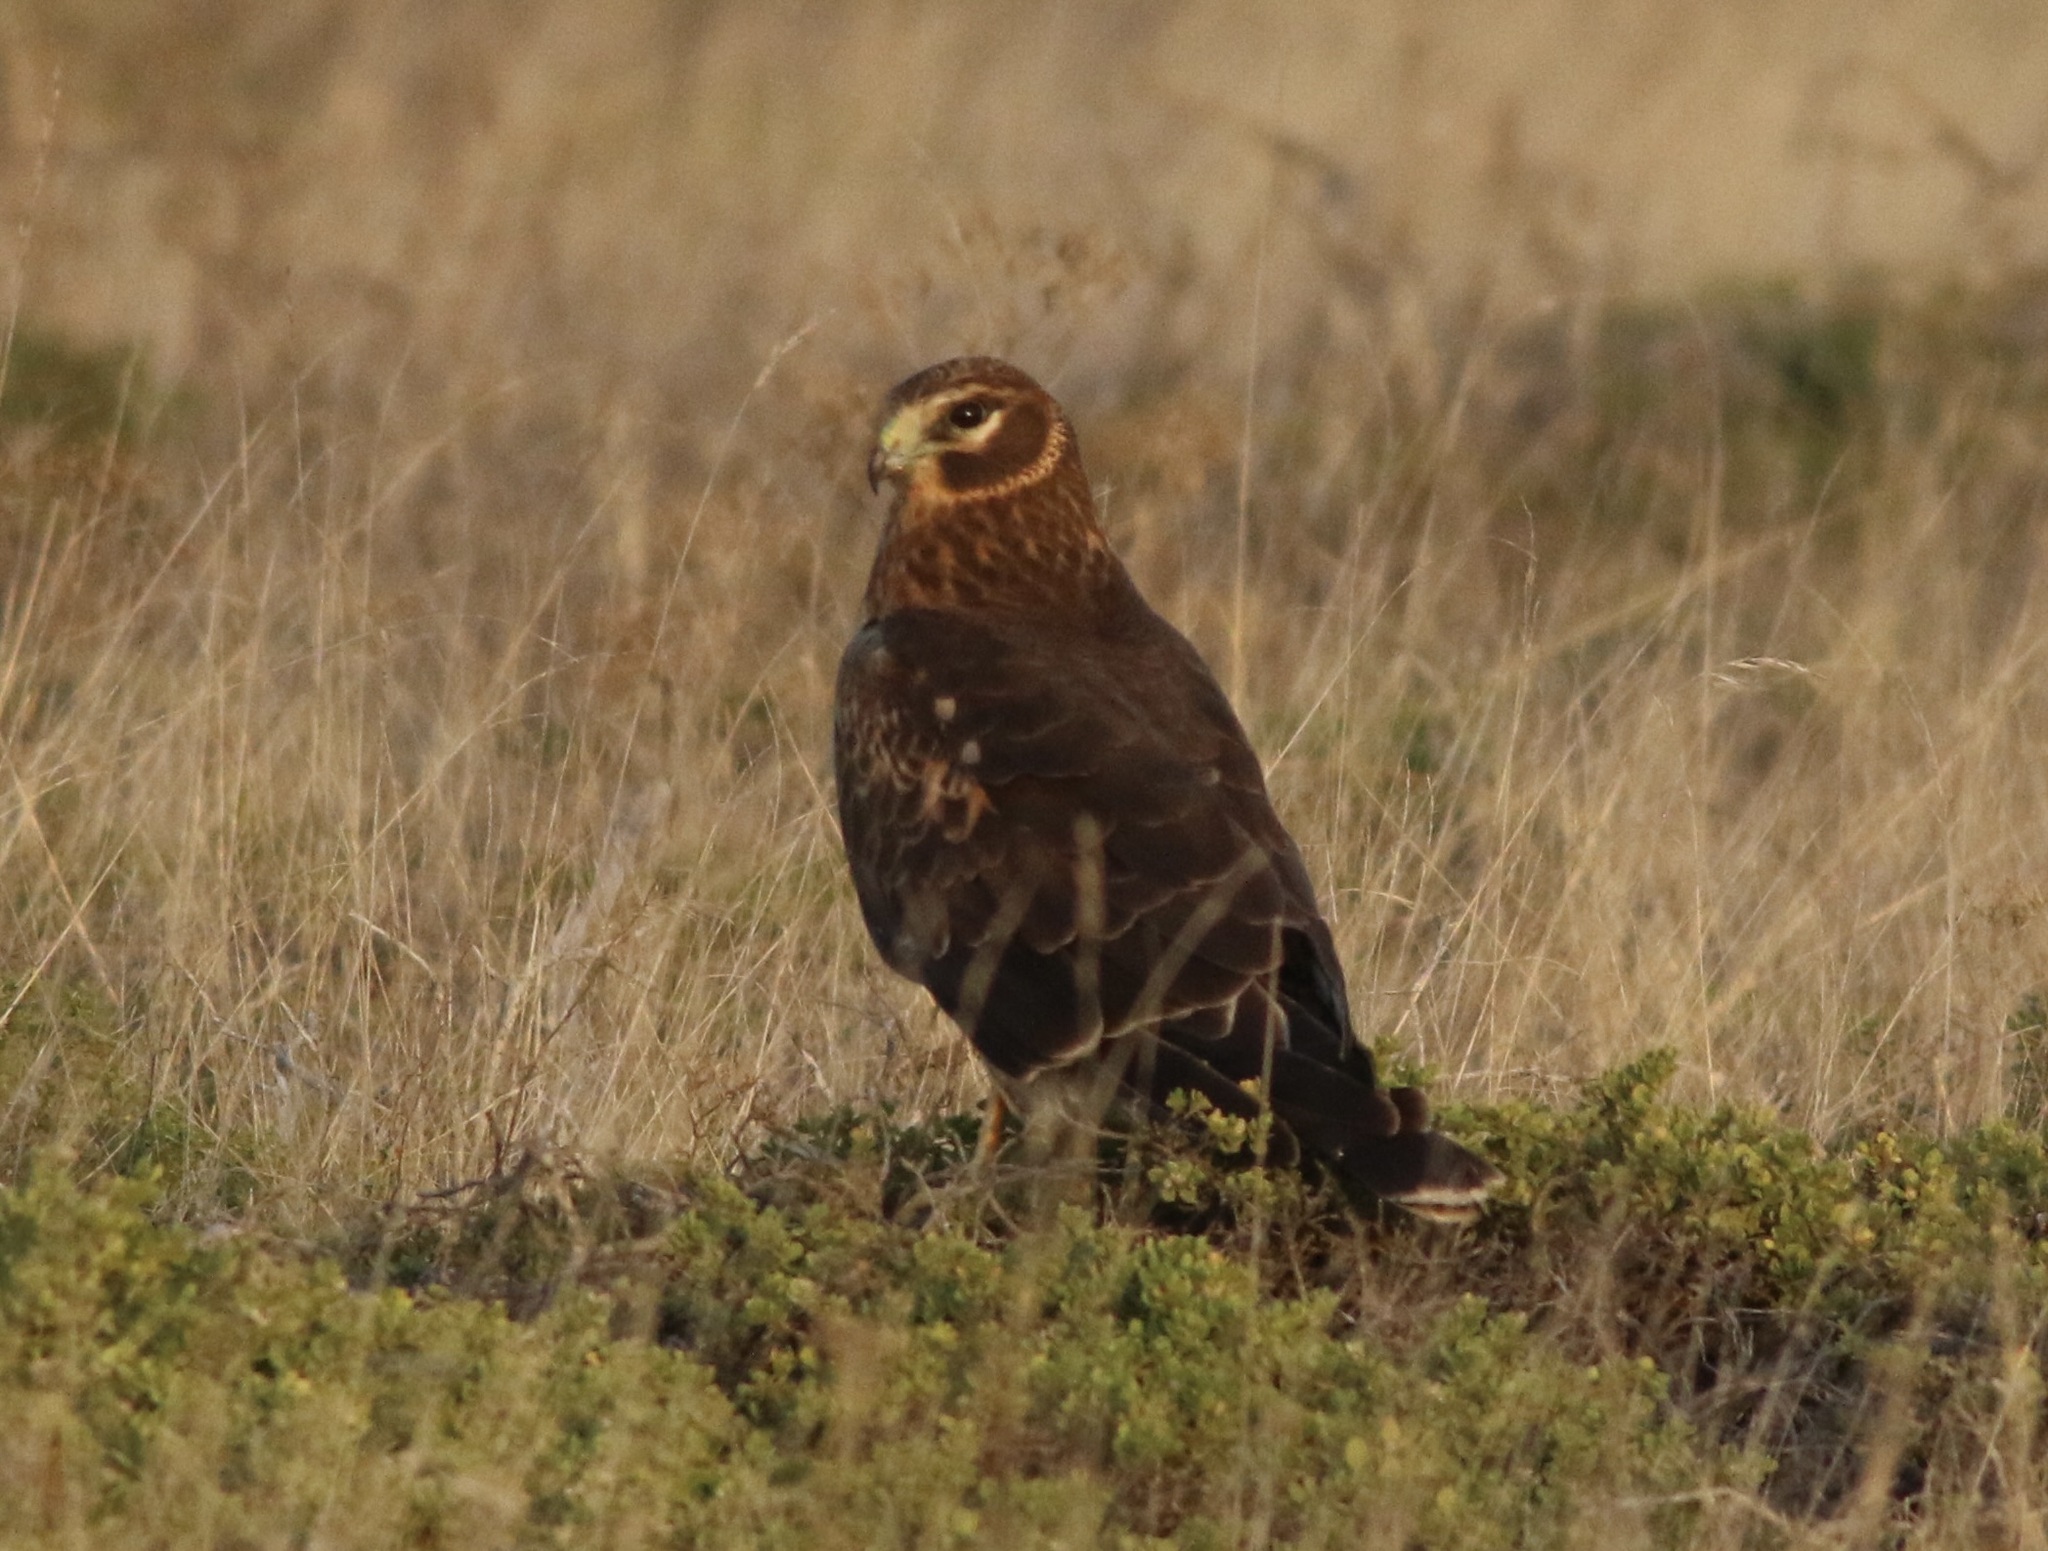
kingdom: Animalia
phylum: Chordata
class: Aves
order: Accipitriformes
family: Accipitridae
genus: Circus
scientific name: Circus cyaneus
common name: Hen harrier
